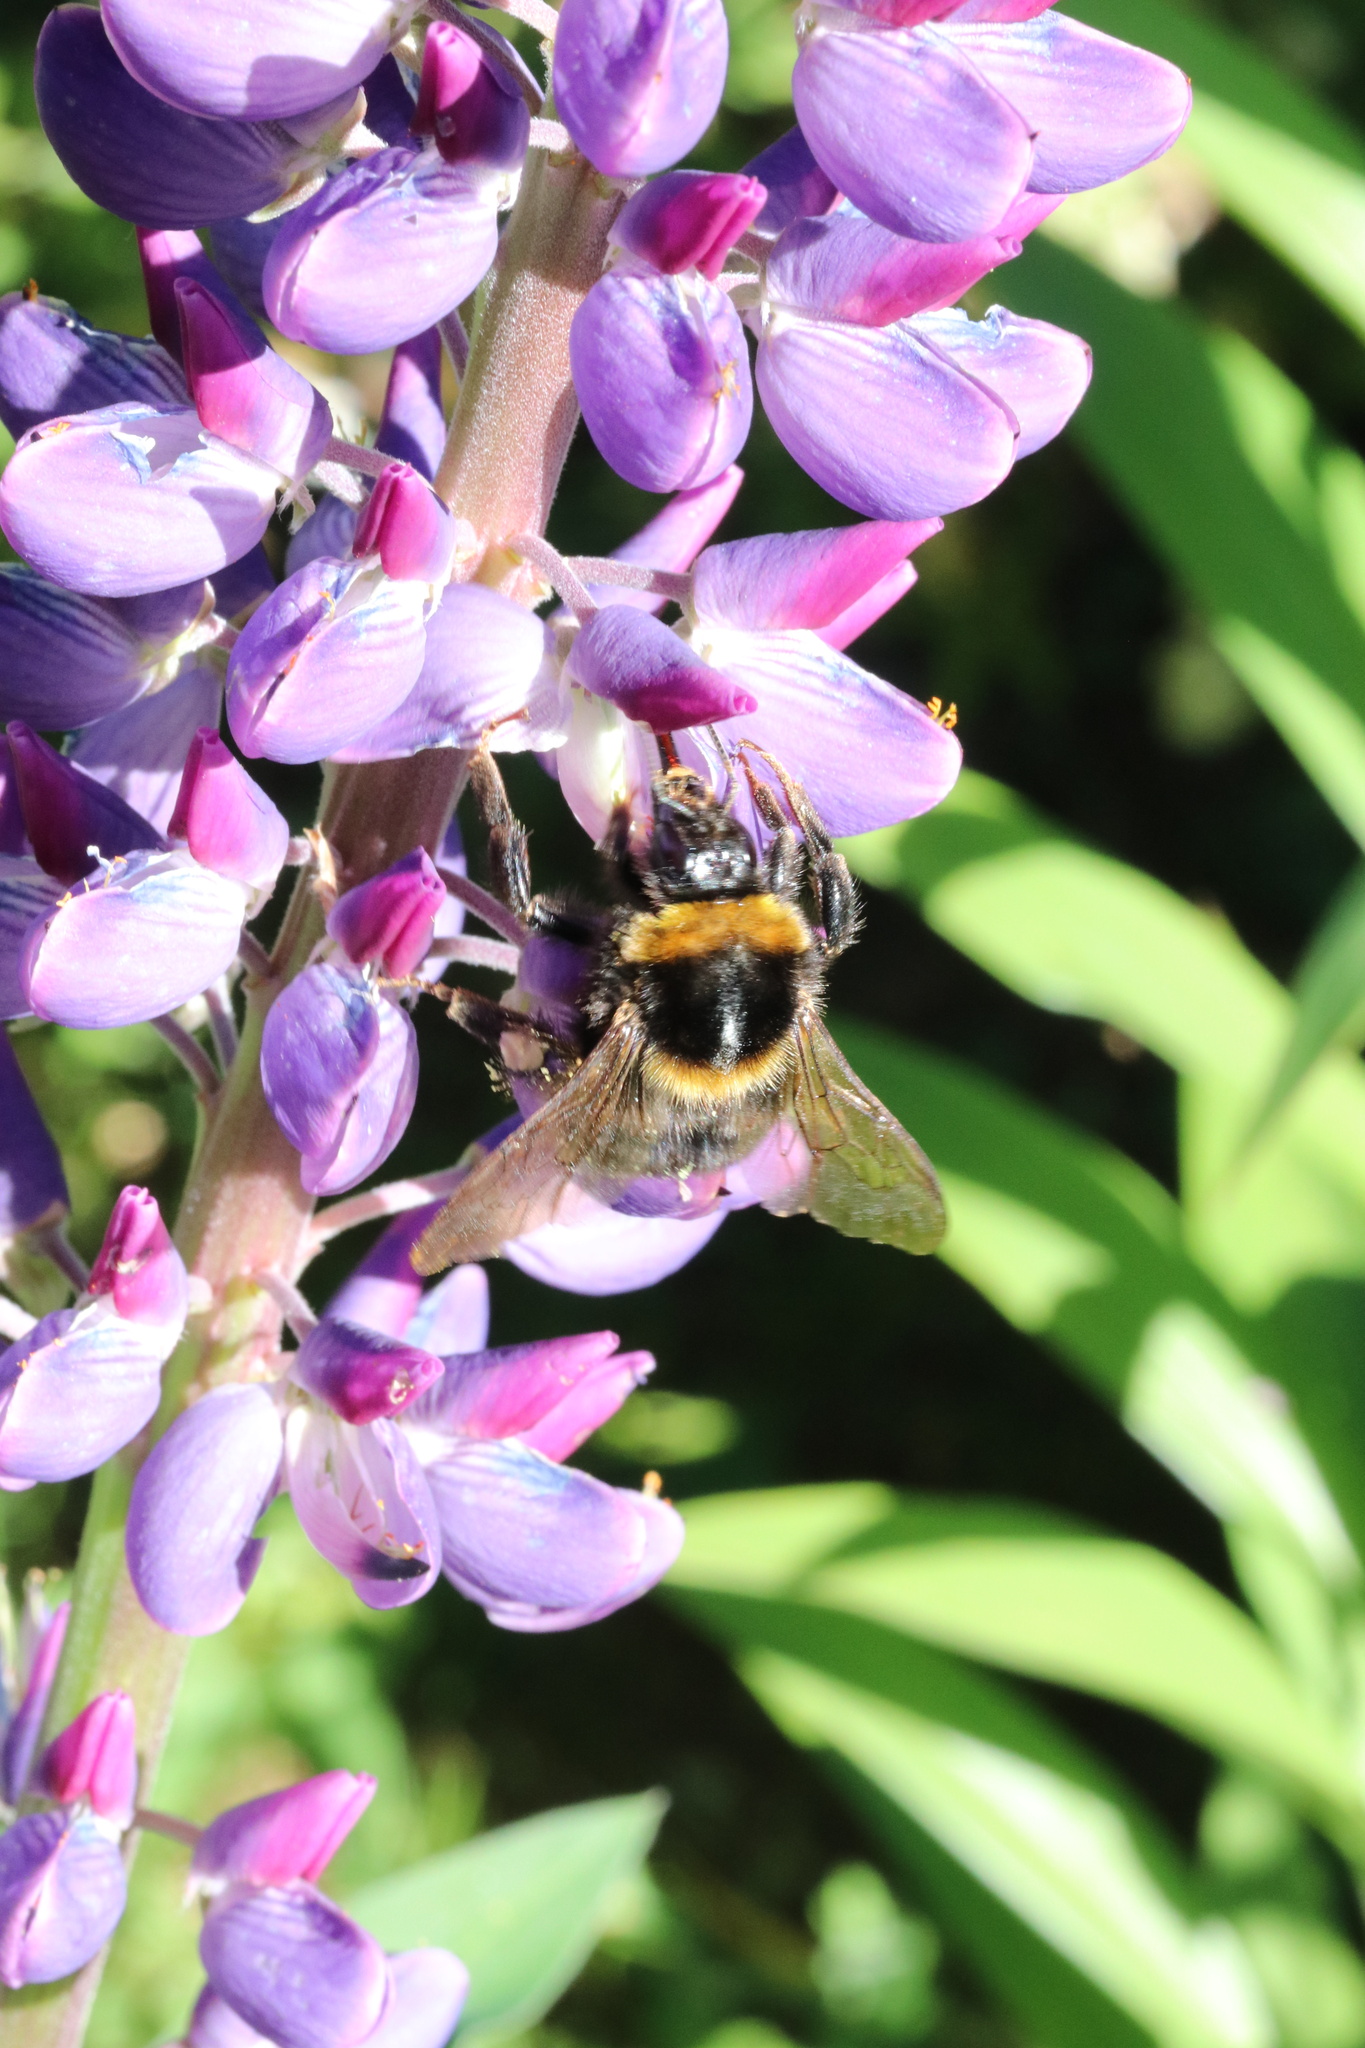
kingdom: Animalia
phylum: Arthropoda
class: Insecta
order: Hymenoptera
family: Apidae
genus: Bombus
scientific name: Bombus ruderatus
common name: Large garden bumblebee
